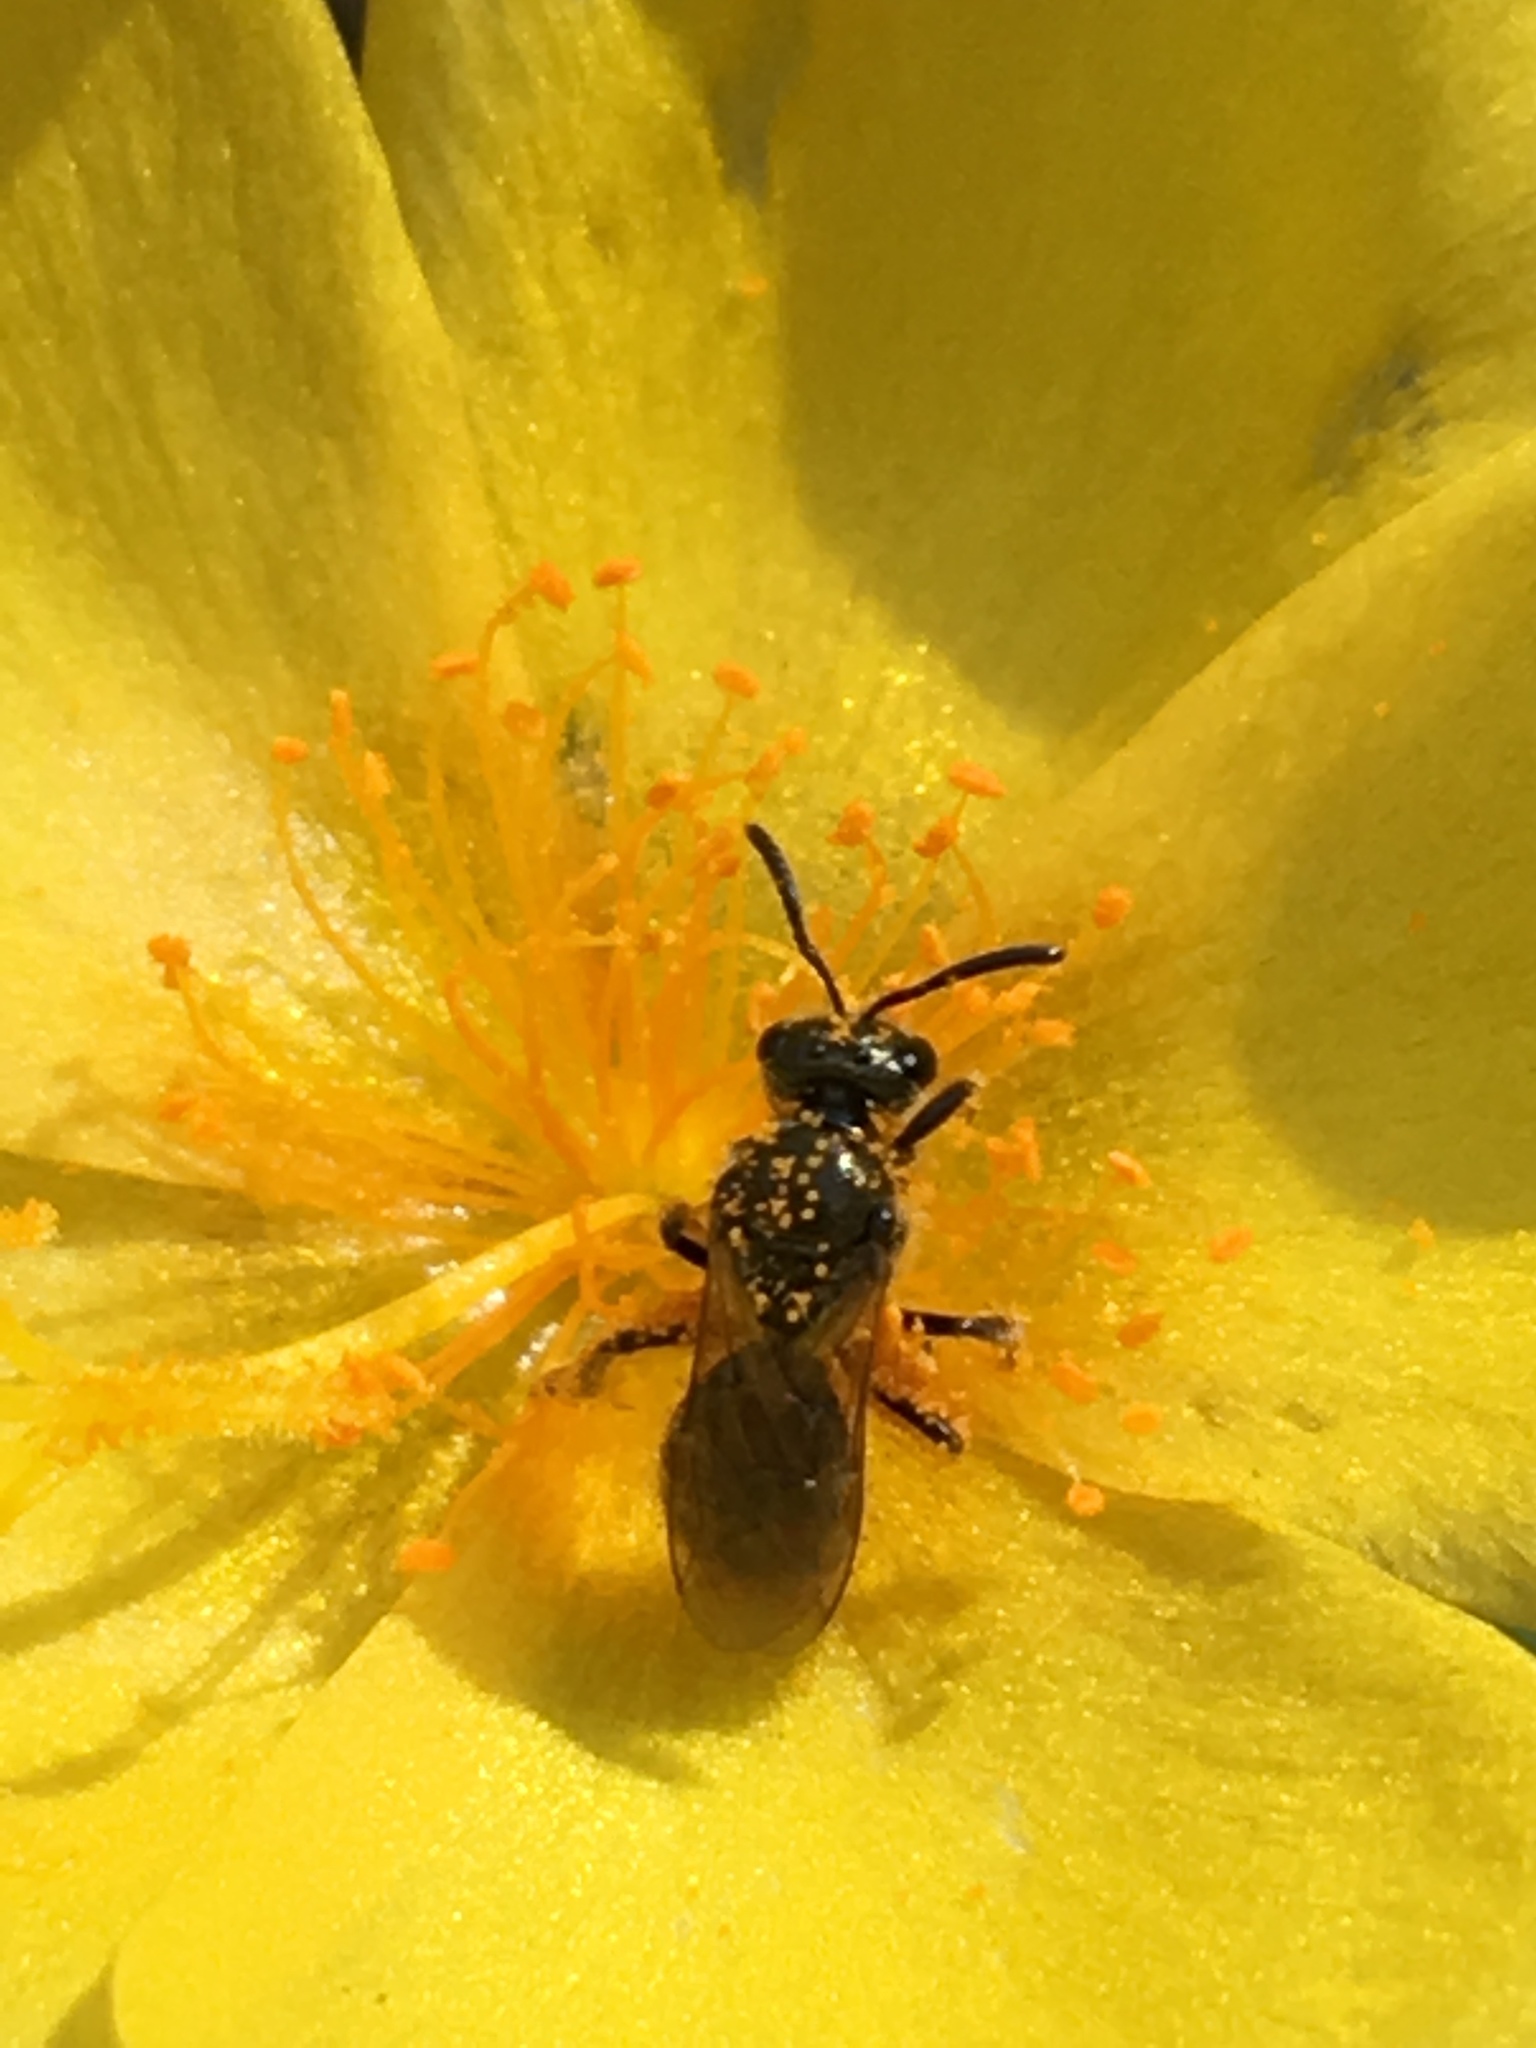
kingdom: Animalia
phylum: Arthropoda
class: Insecta
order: Hymenoptera
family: Halictidae
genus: Dialictus
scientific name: Dialictus
